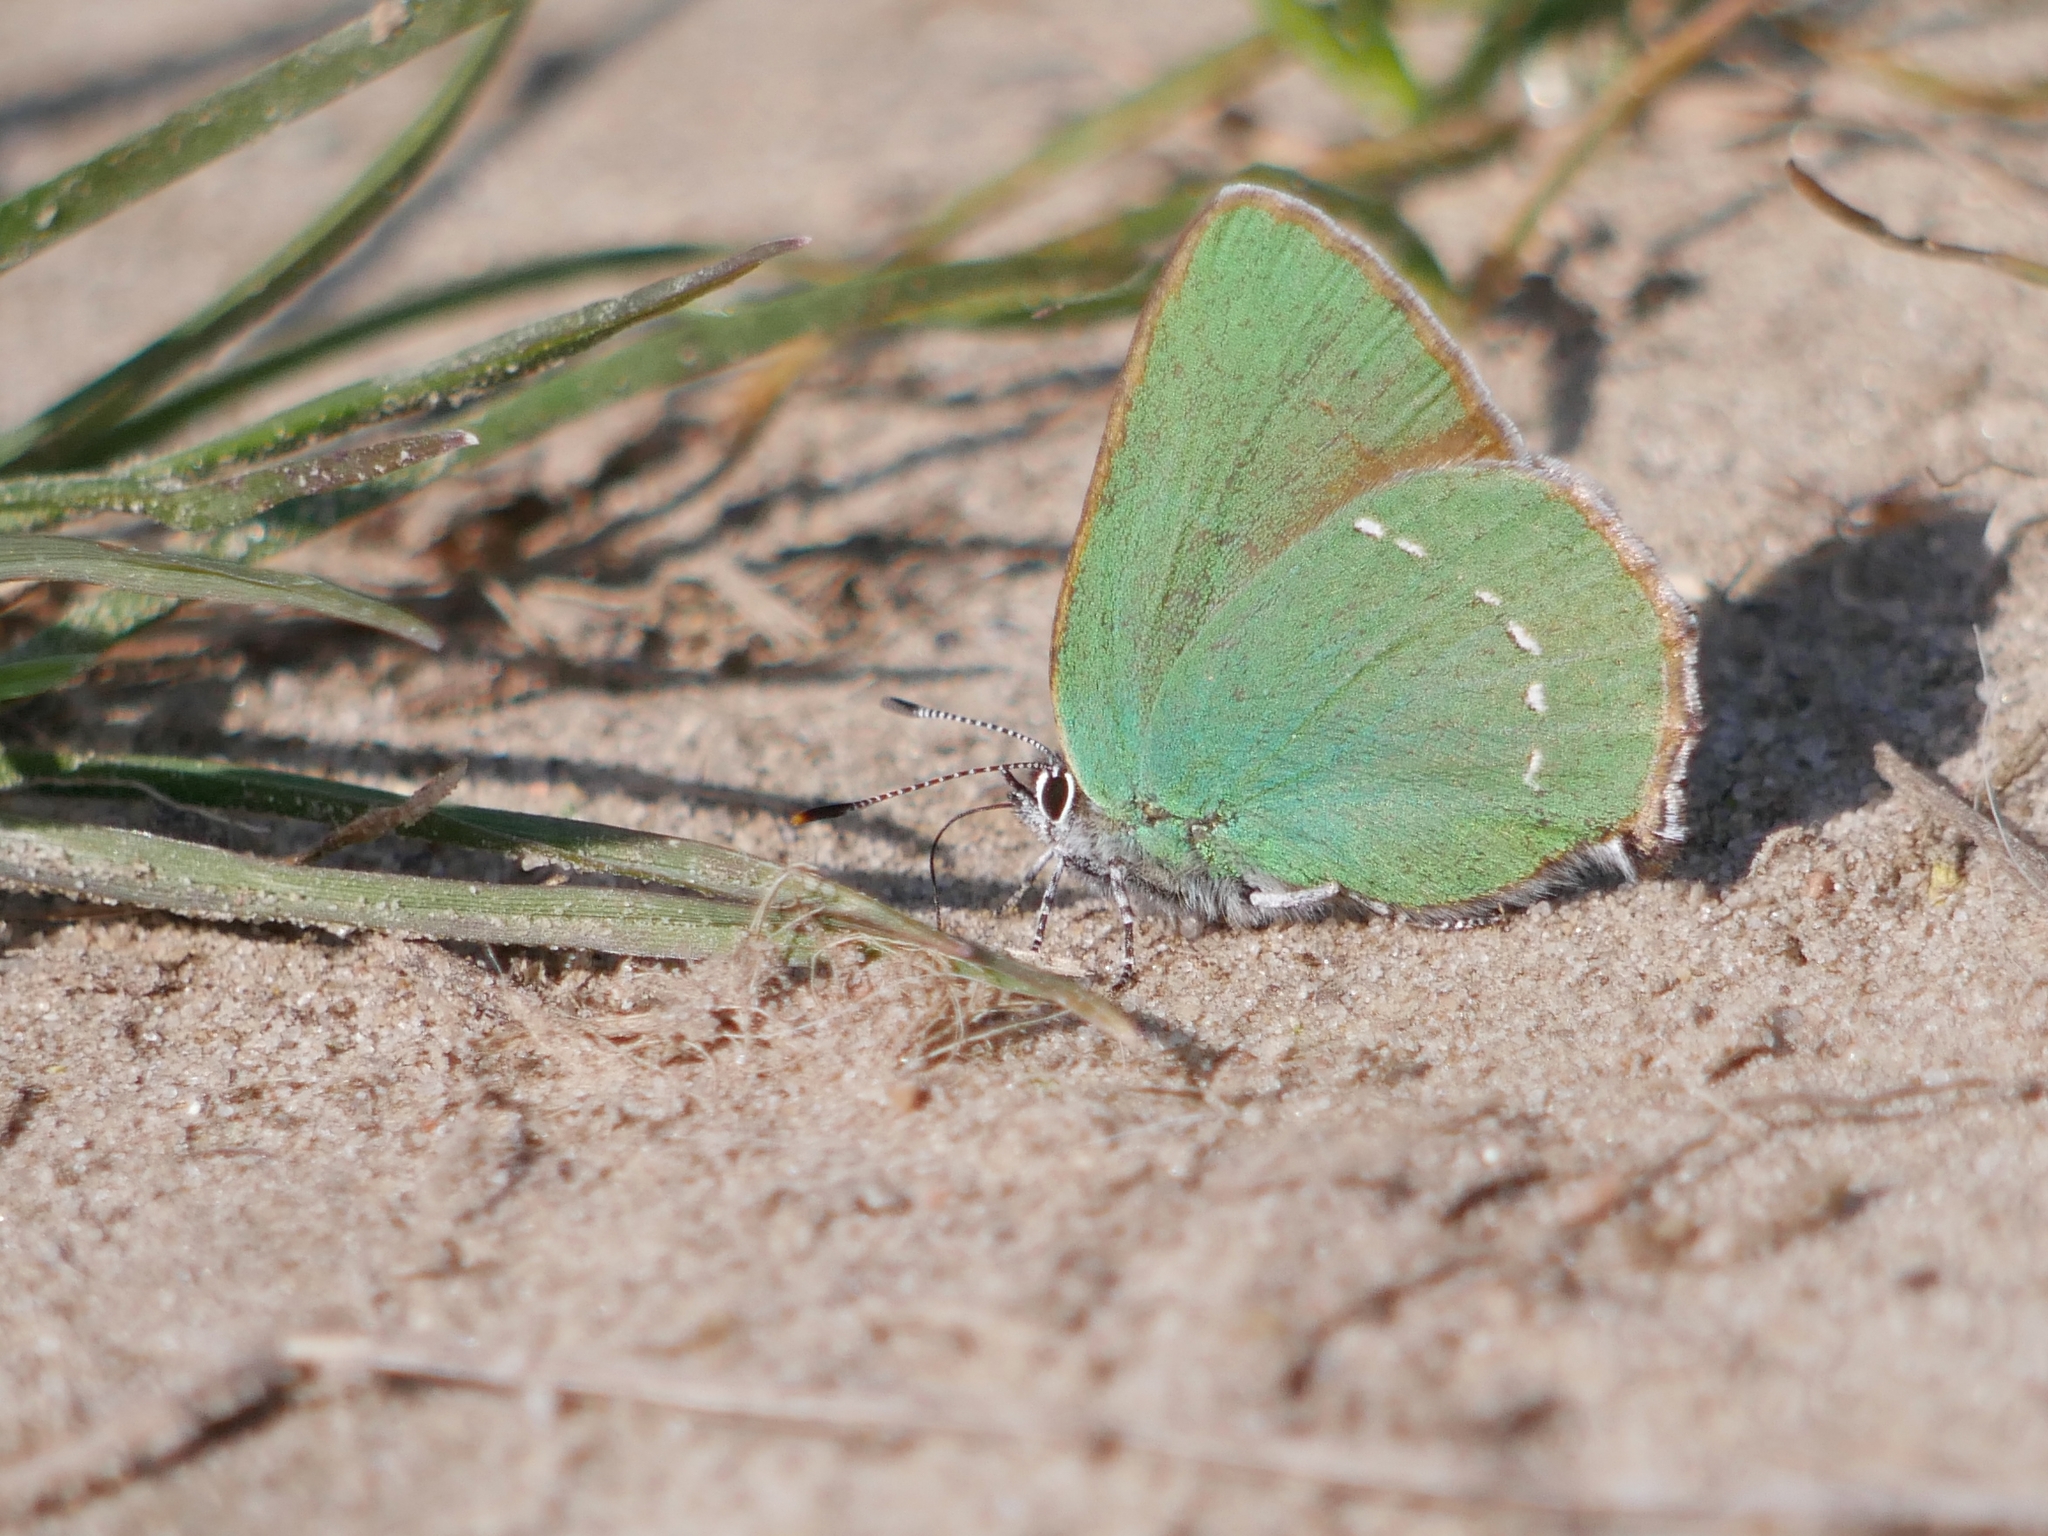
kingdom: Animalia
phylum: Arthropoda
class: Insecta
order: Lepidoptera
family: Lycaenidae
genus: Callophrys
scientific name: Callophrys rubi
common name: Green hairstreak
